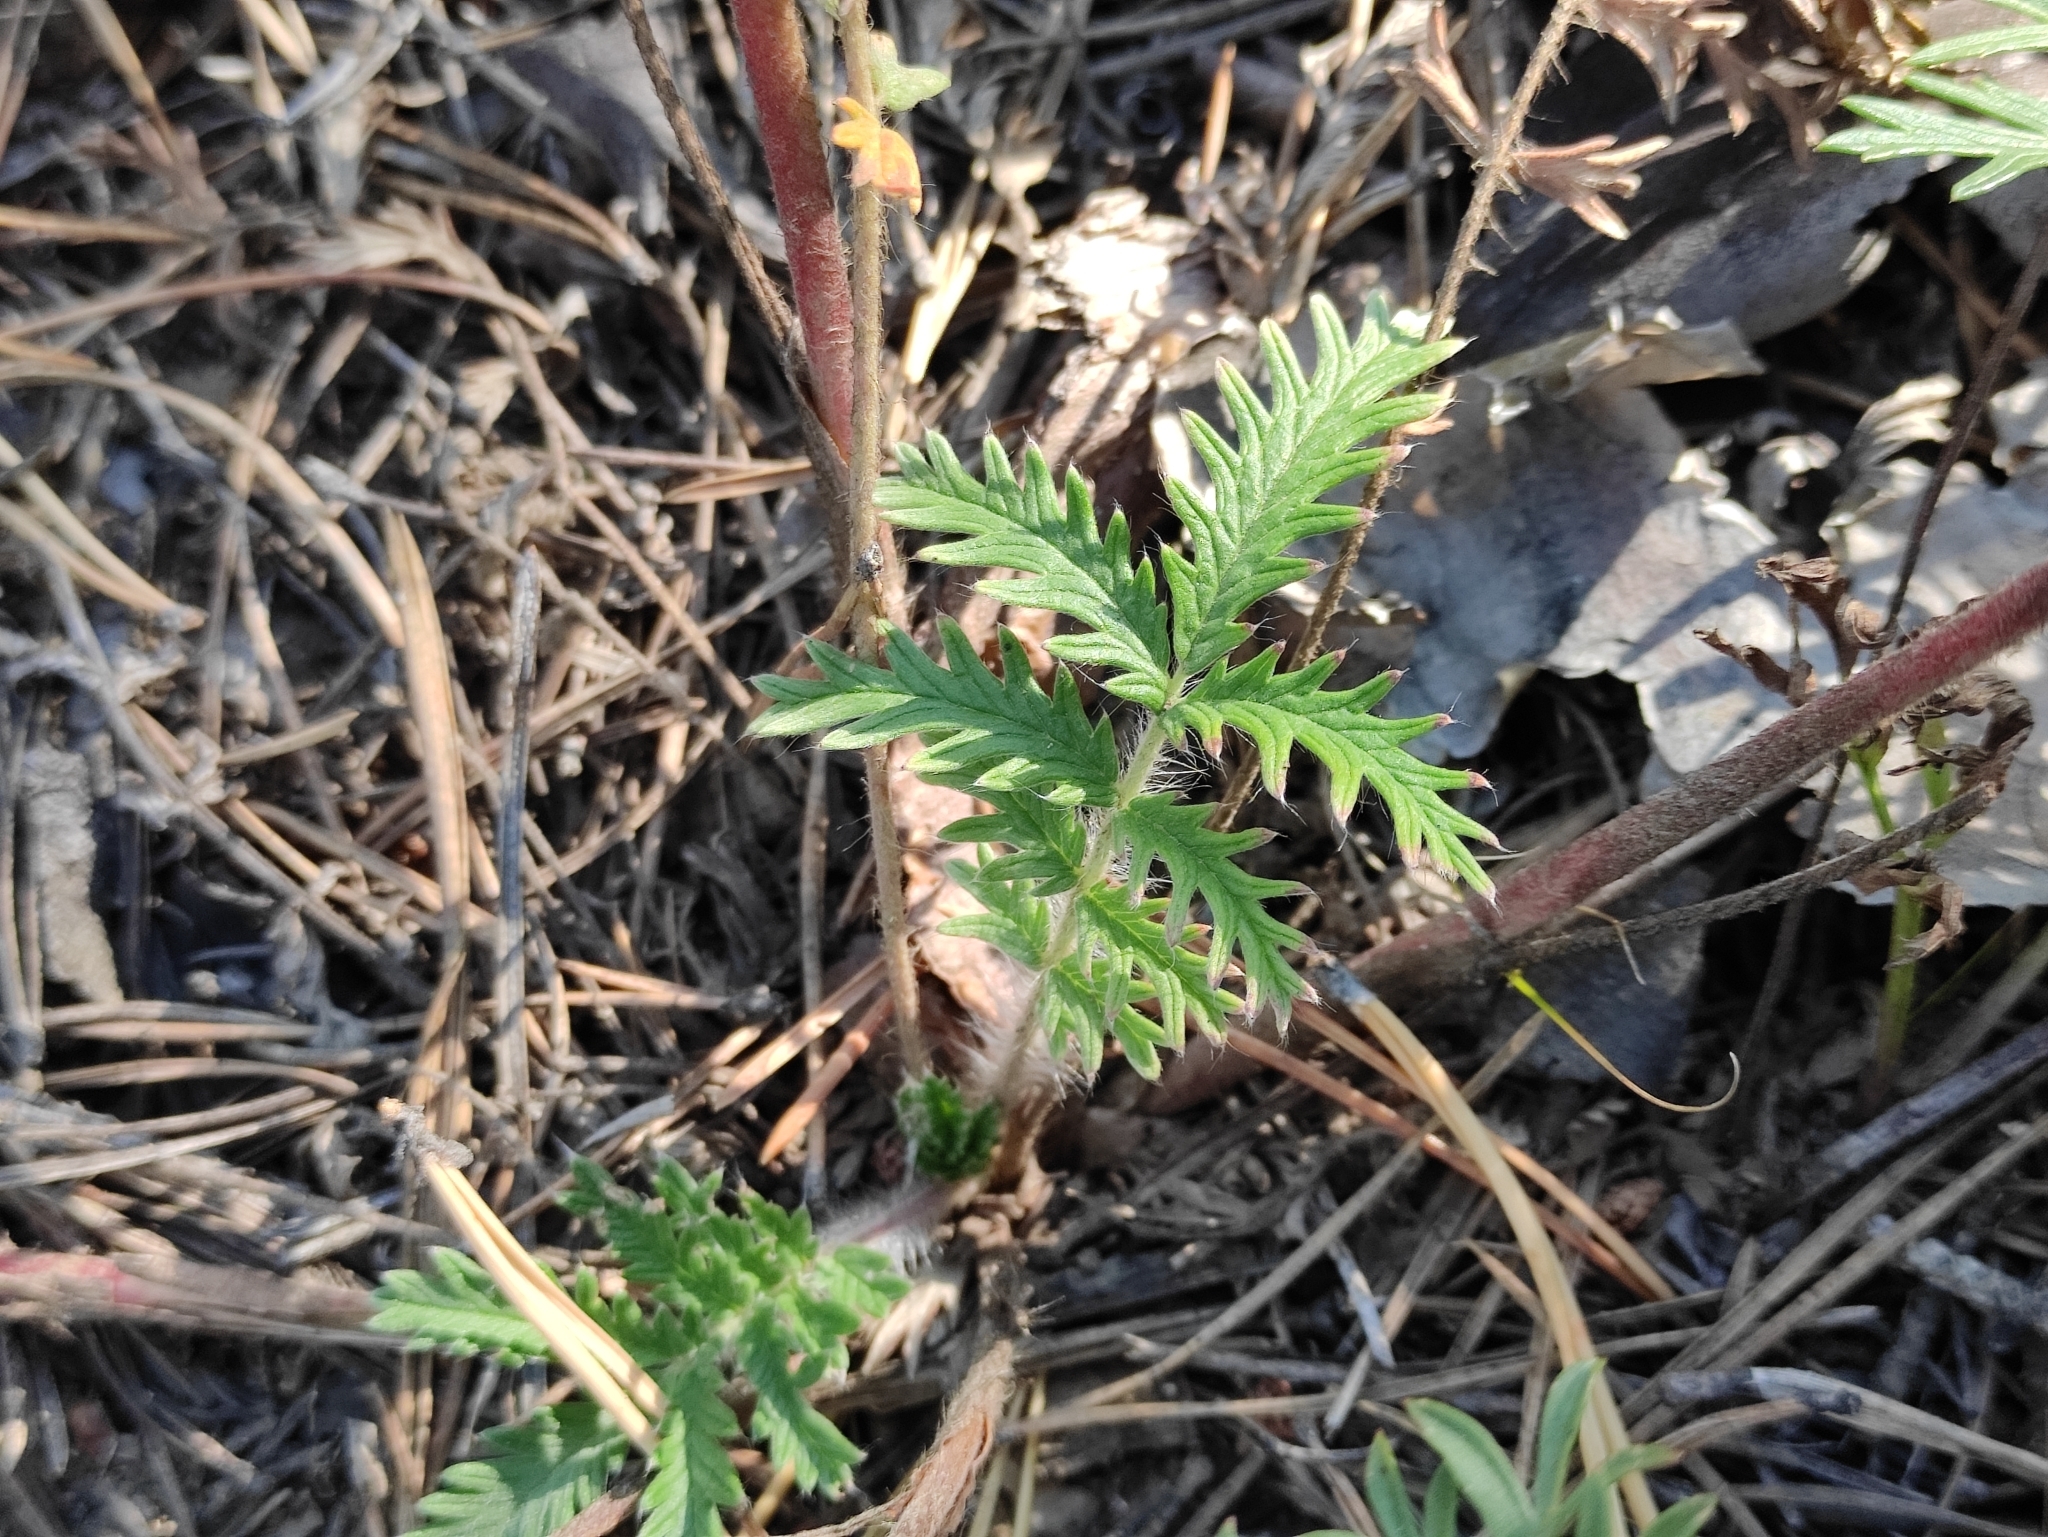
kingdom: Plantae
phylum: Tracheophyta
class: Magnoliopsida
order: Rosales
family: Rosaceae
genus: Potentilla
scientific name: Potentilla chalchorum
